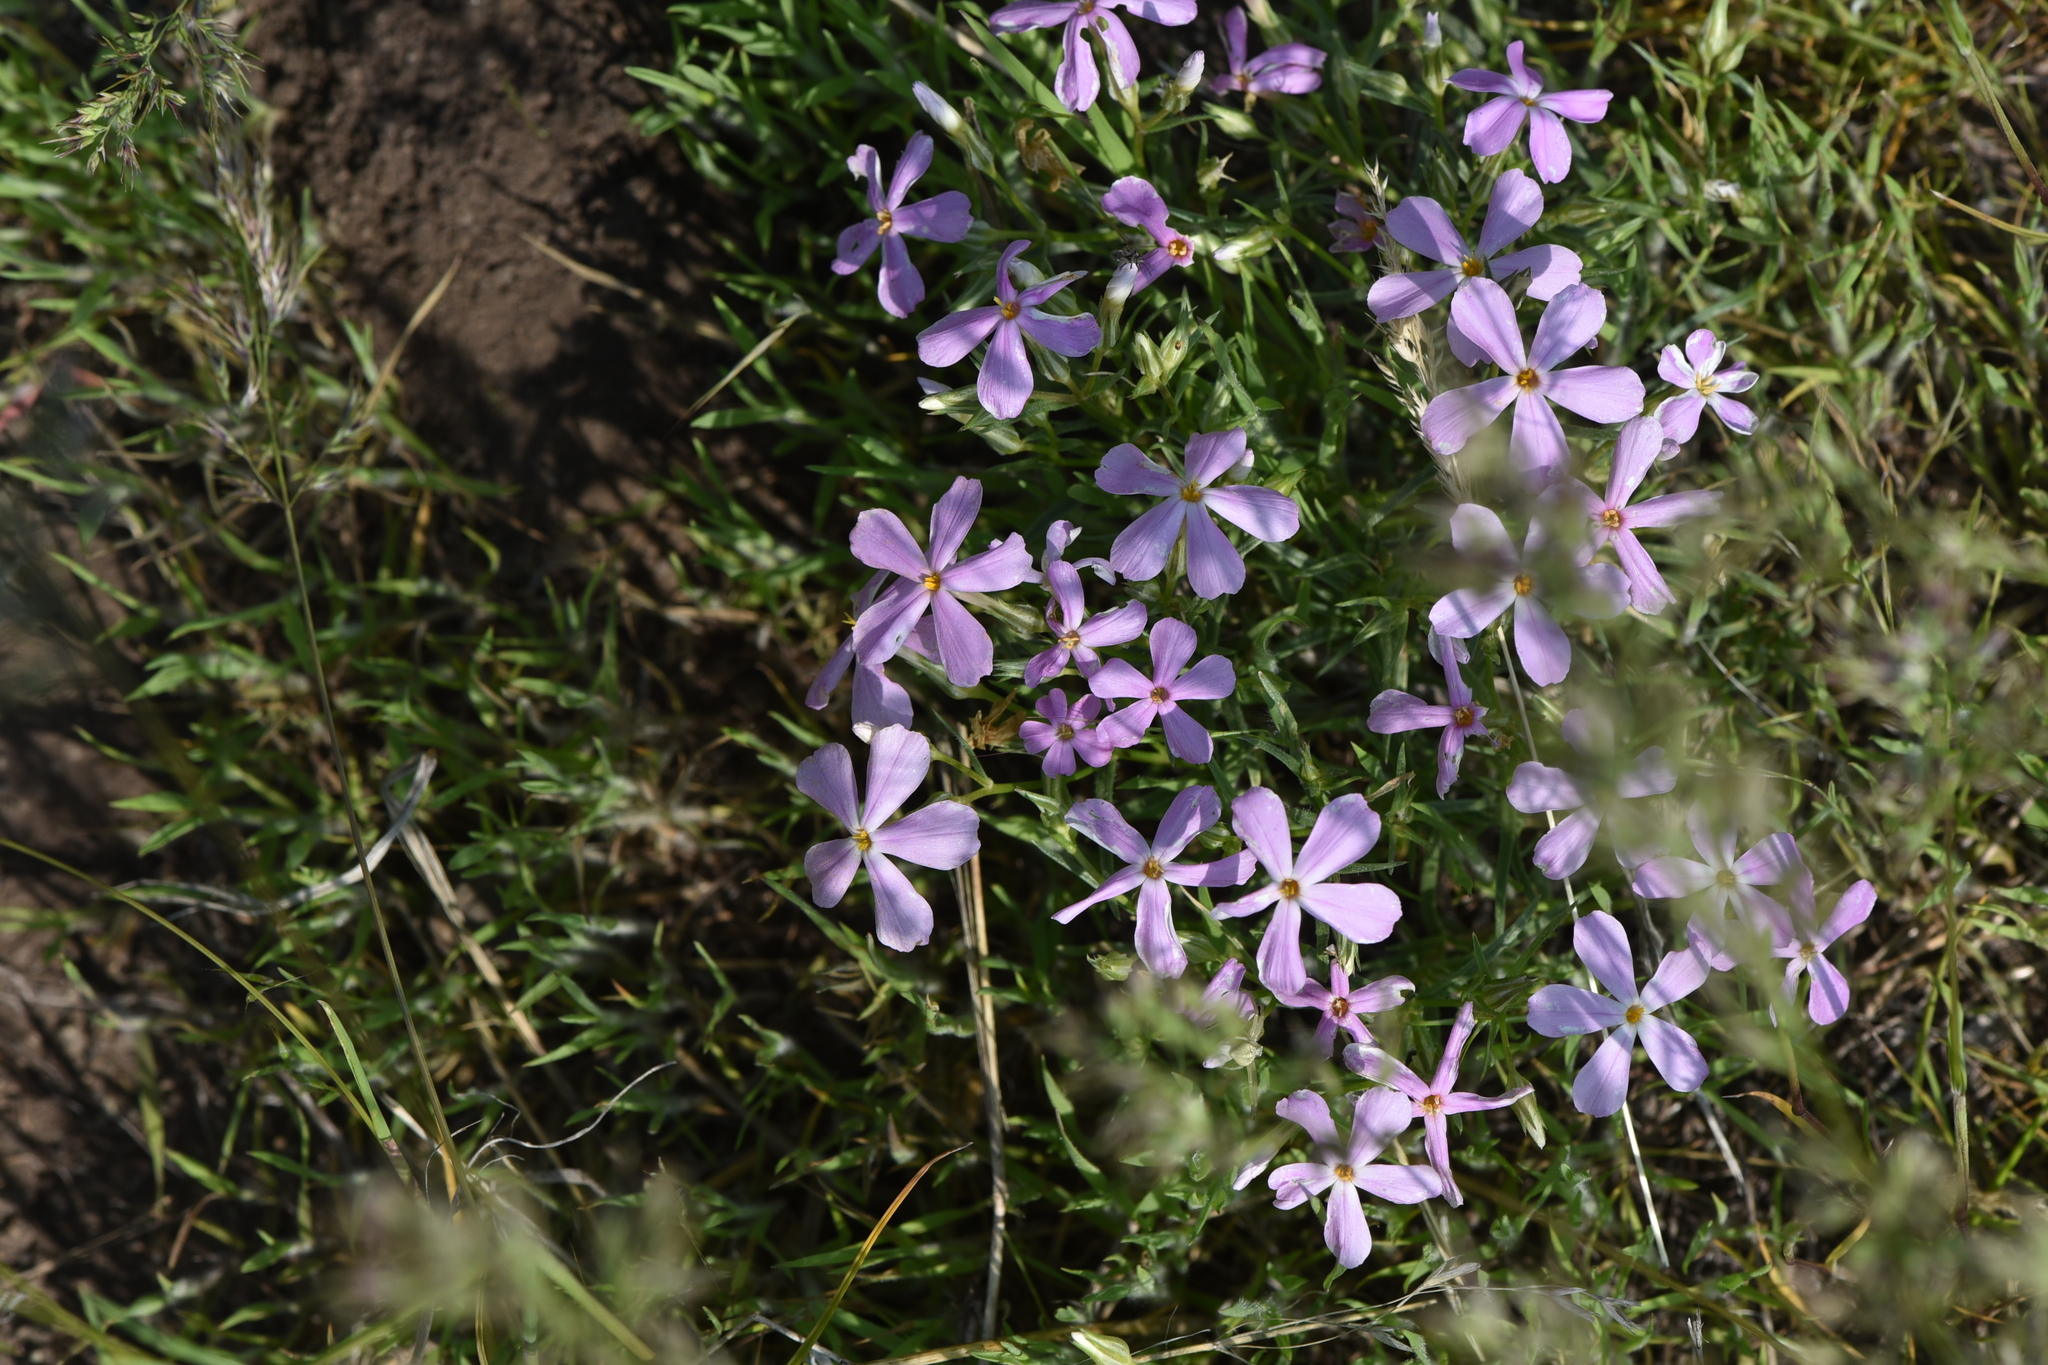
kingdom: Plantae
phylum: Tracheophyta
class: Magnoliopsida
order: Ericales
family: Polemoniaceae
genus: Phlox
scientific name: Phlox longifolia
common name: Longleaf phlox
